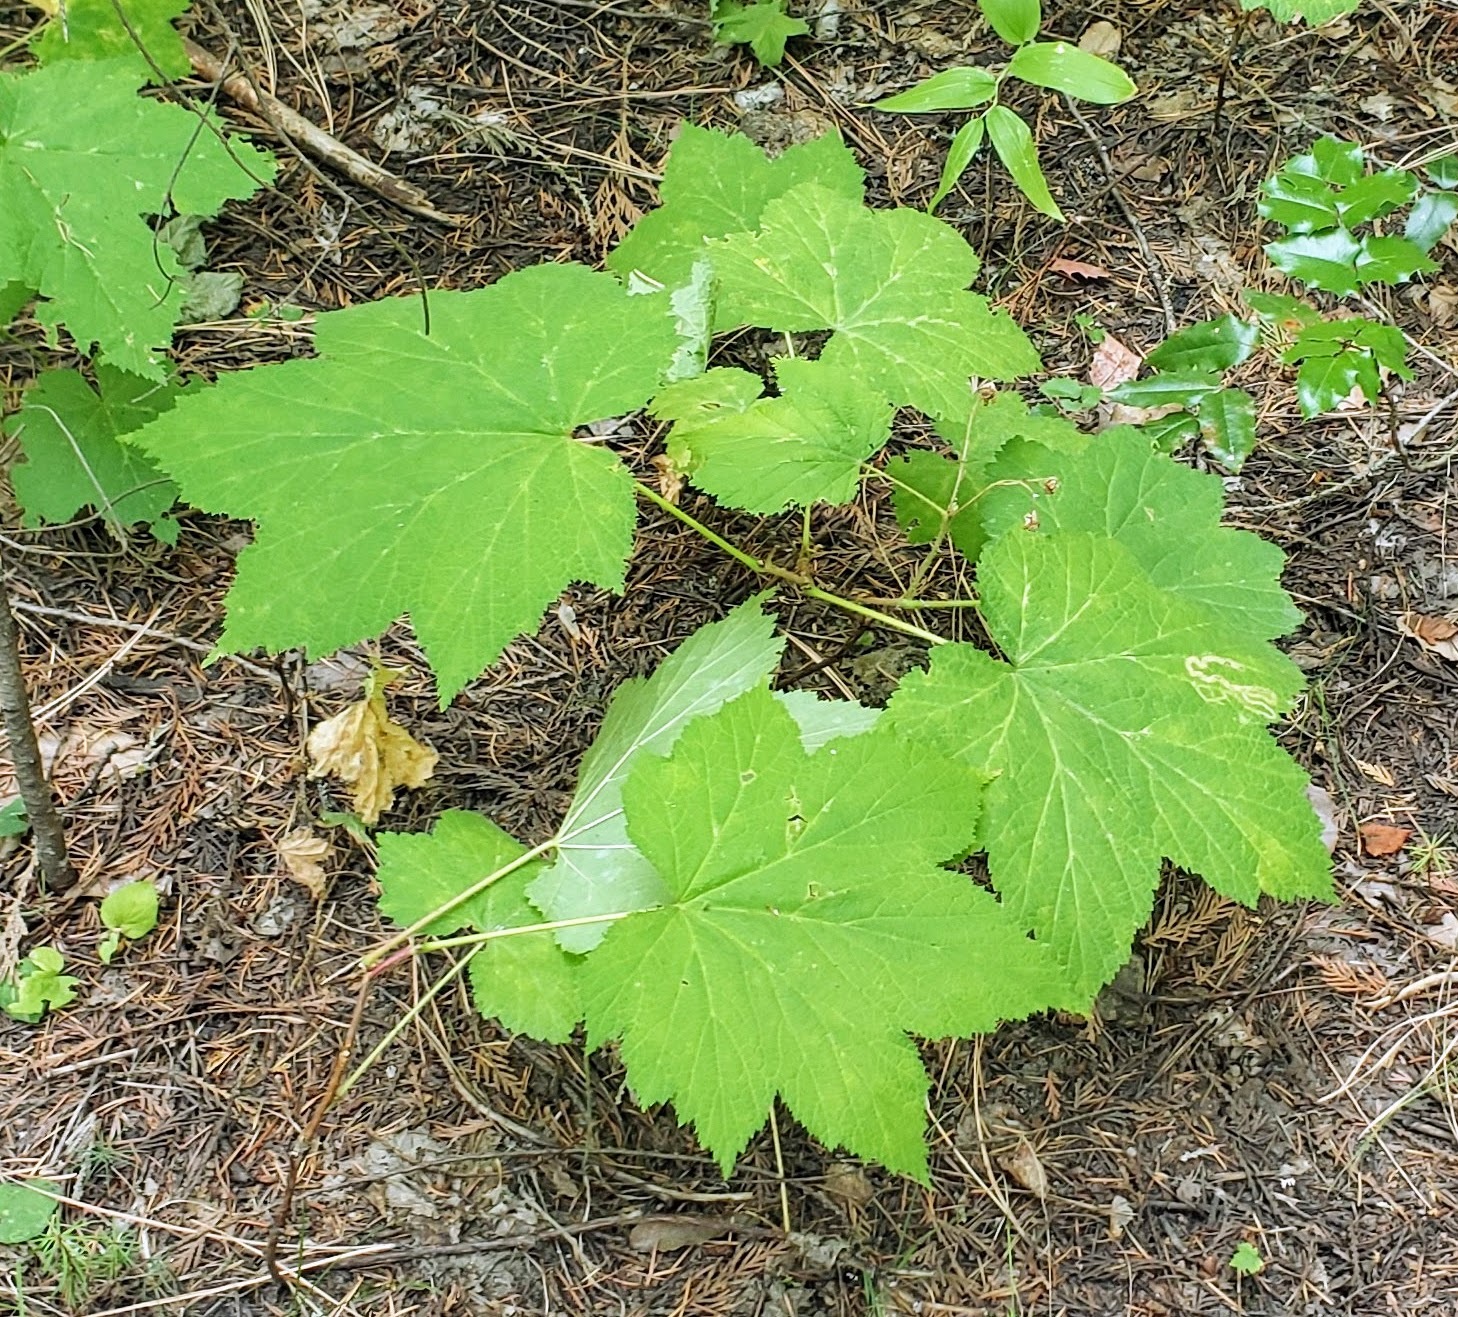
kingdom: Plantae
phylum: Tracheophyta
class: Magnoliopsida
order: Rosales
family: Rosaceae
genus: Rubus
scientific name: Rubus parviflorus
